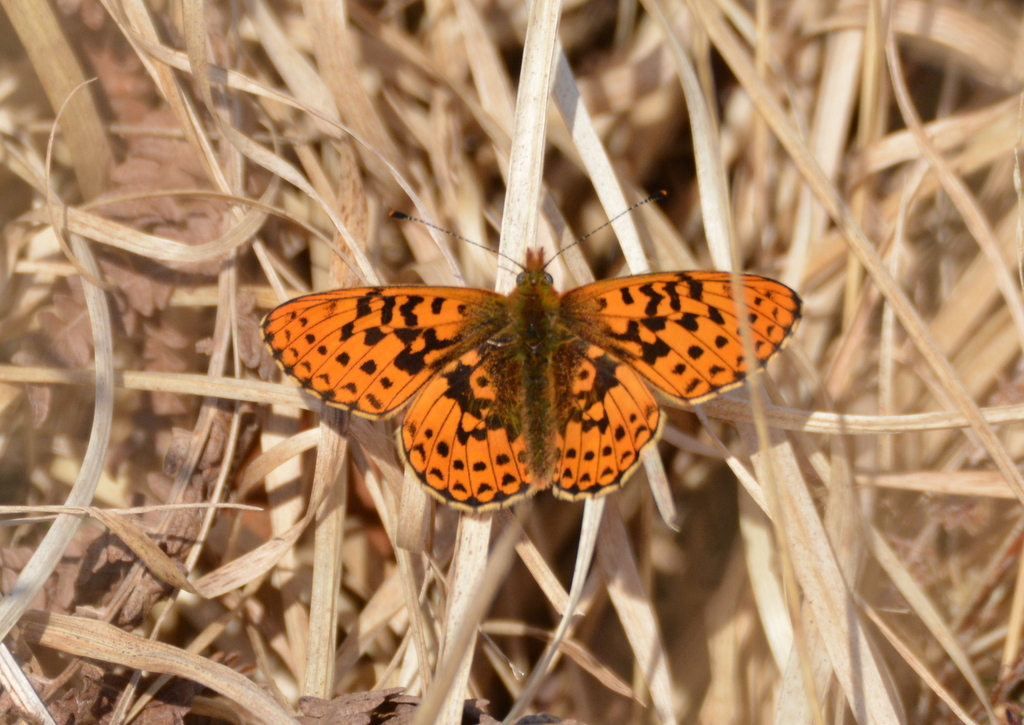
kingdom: Animalia
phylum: Arthropoda
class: Insecta
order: Lepidoptera
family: Nymphalidae
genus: Clossiana
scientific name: Clossiana euphrosyne
